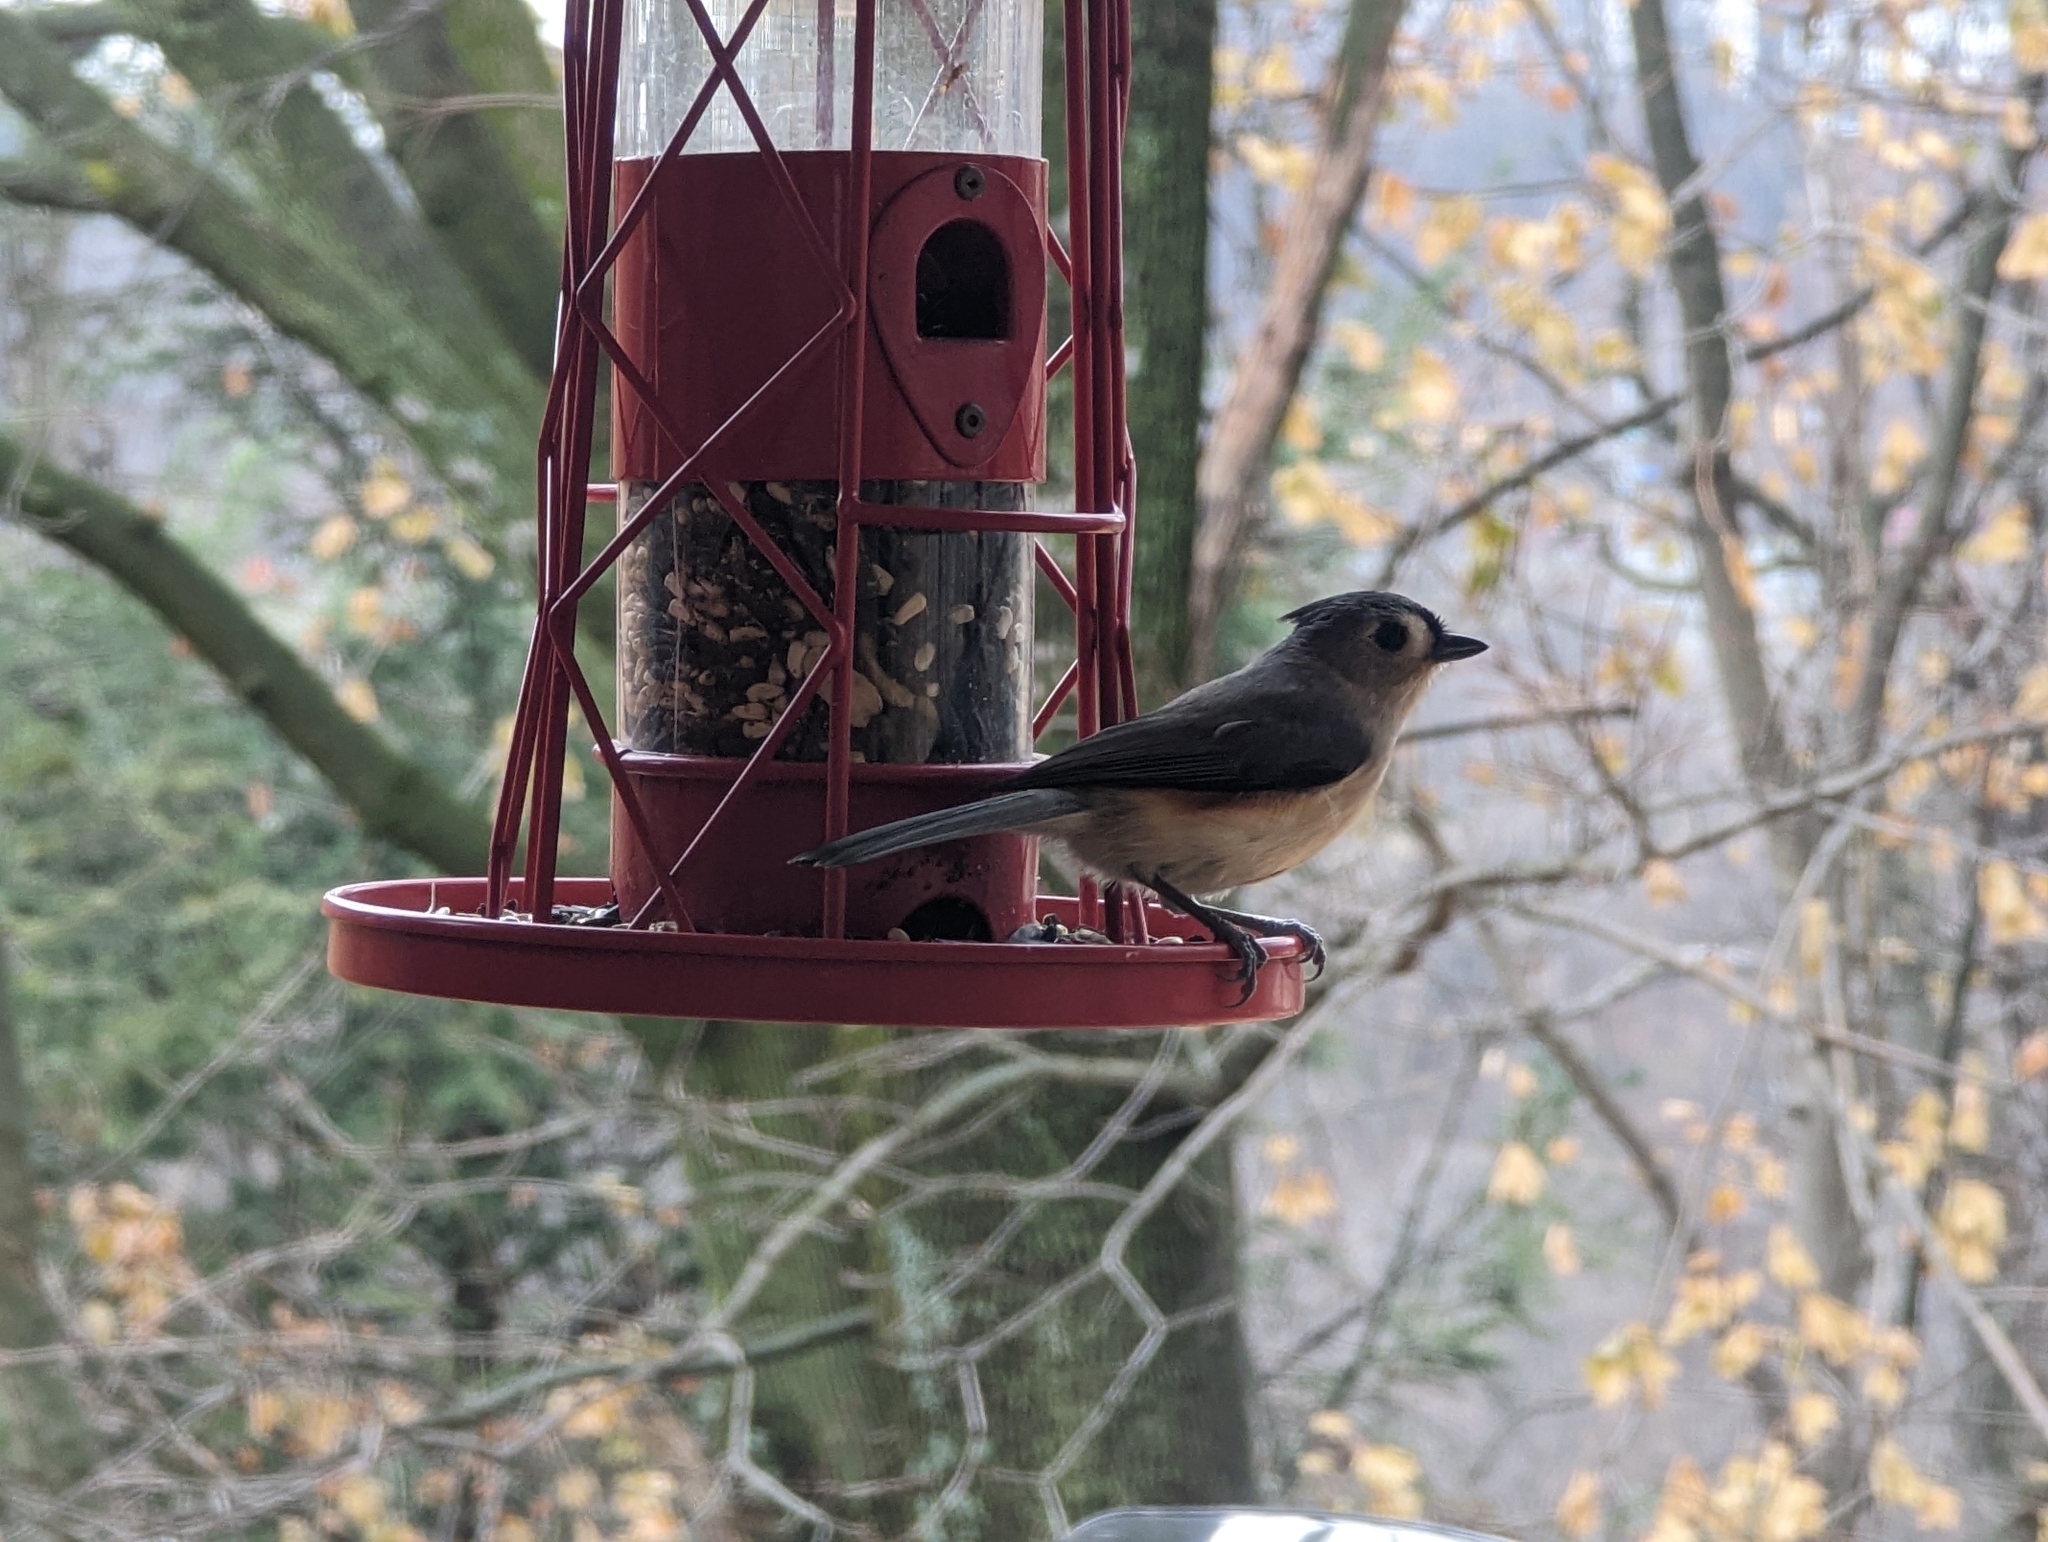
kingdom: Animalia
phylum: Chordata
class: Aves
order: Passeriformes
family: Paridae
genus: Baeolophus
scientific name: Baeolophus bicolor
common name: Tufted titmouse
